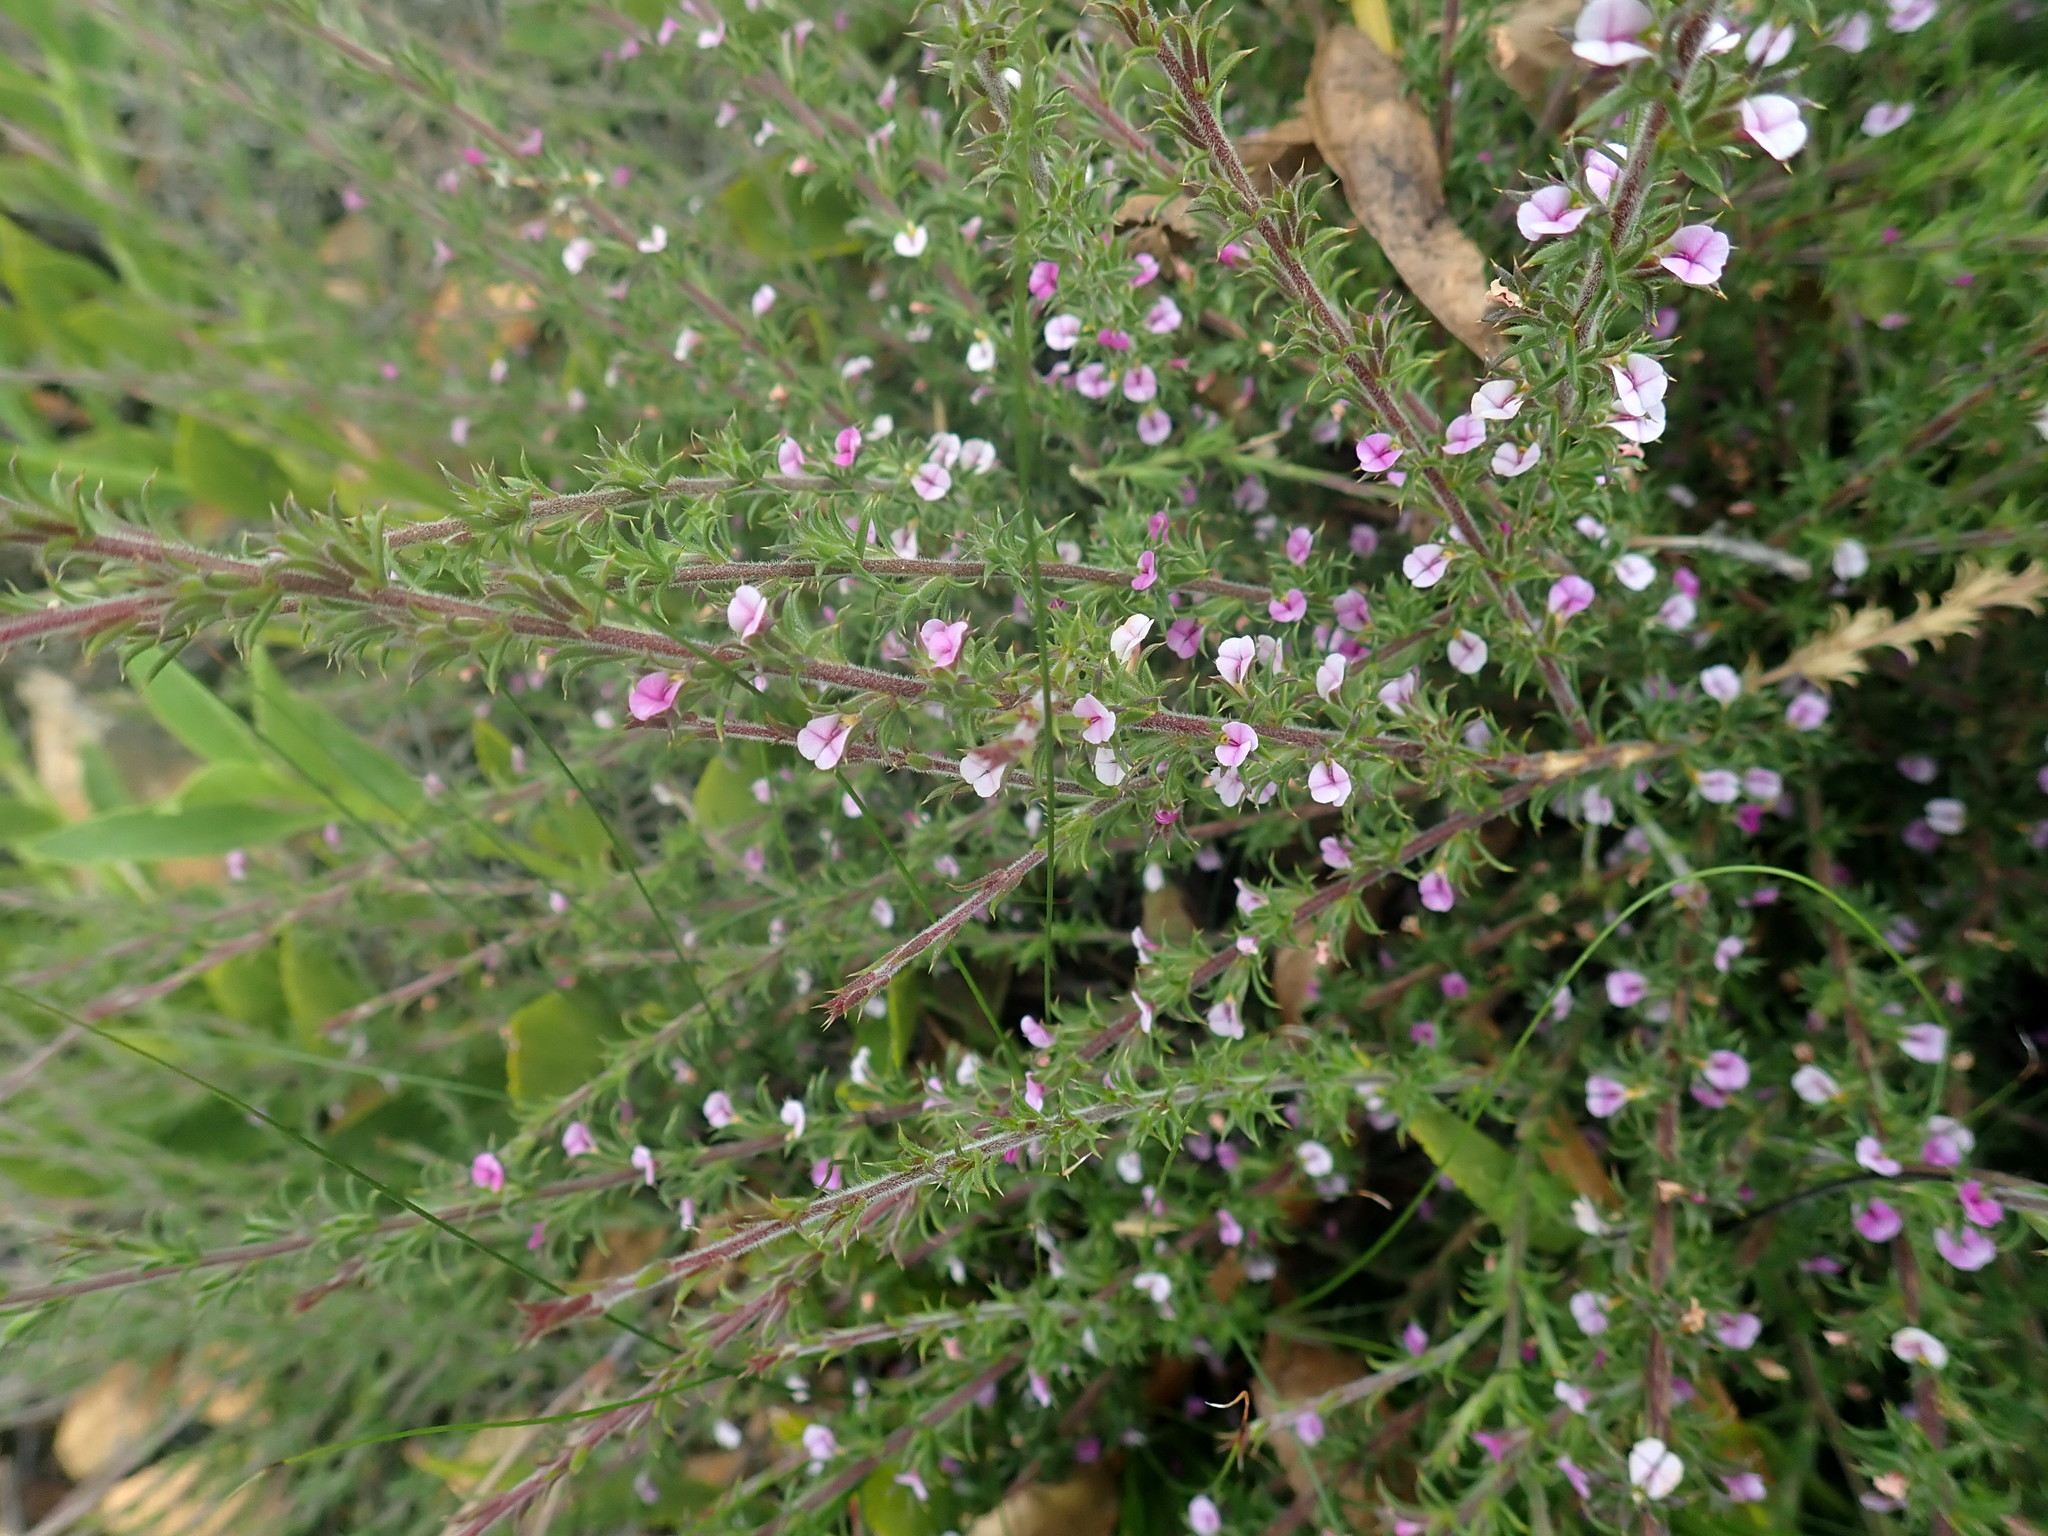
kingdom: Plantae
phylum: Tracheophyta
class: Magnoliopsida
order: Fabales
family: Polygalaceae
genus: Muraltia
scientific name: Muraltia squarrosa
